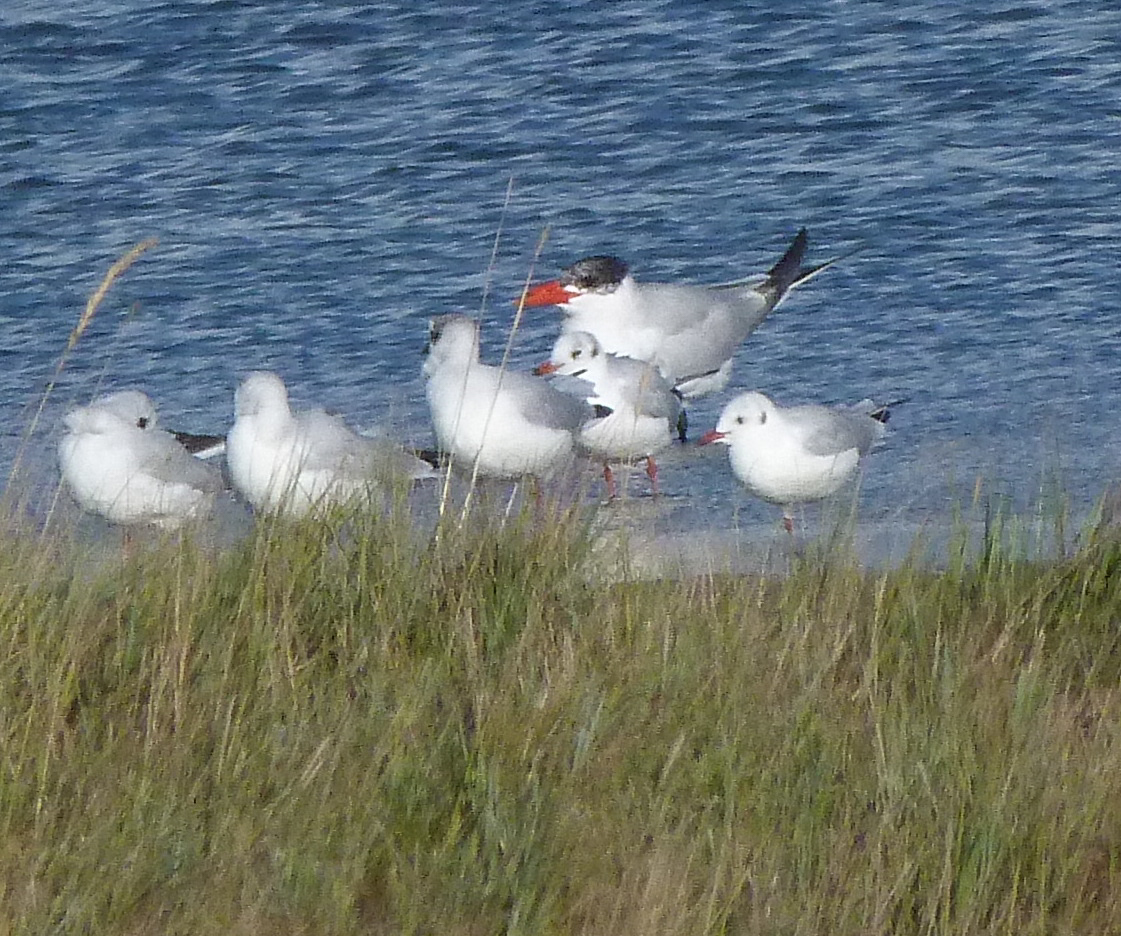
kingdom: Animalia
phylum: Chordata
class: Aves
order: Charadriiformes
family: Laridae
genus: Hydroprogne
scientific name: Hydroprogne caspia
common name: Caspian tern
